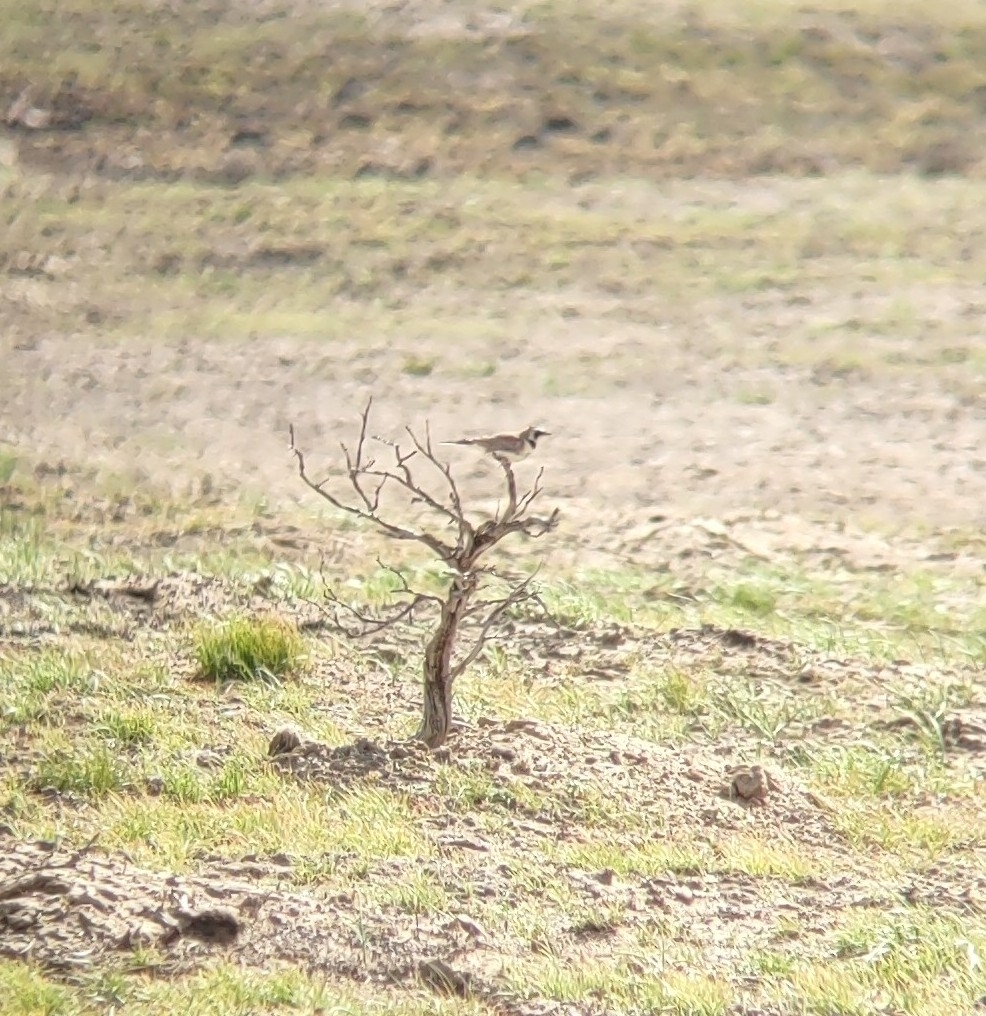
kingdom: Animalia
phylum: Chordata
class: Aves
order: Passeriformes
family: Alaudidae
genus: Eremophila
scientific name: Eremophila alpestris
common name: Horned lark
